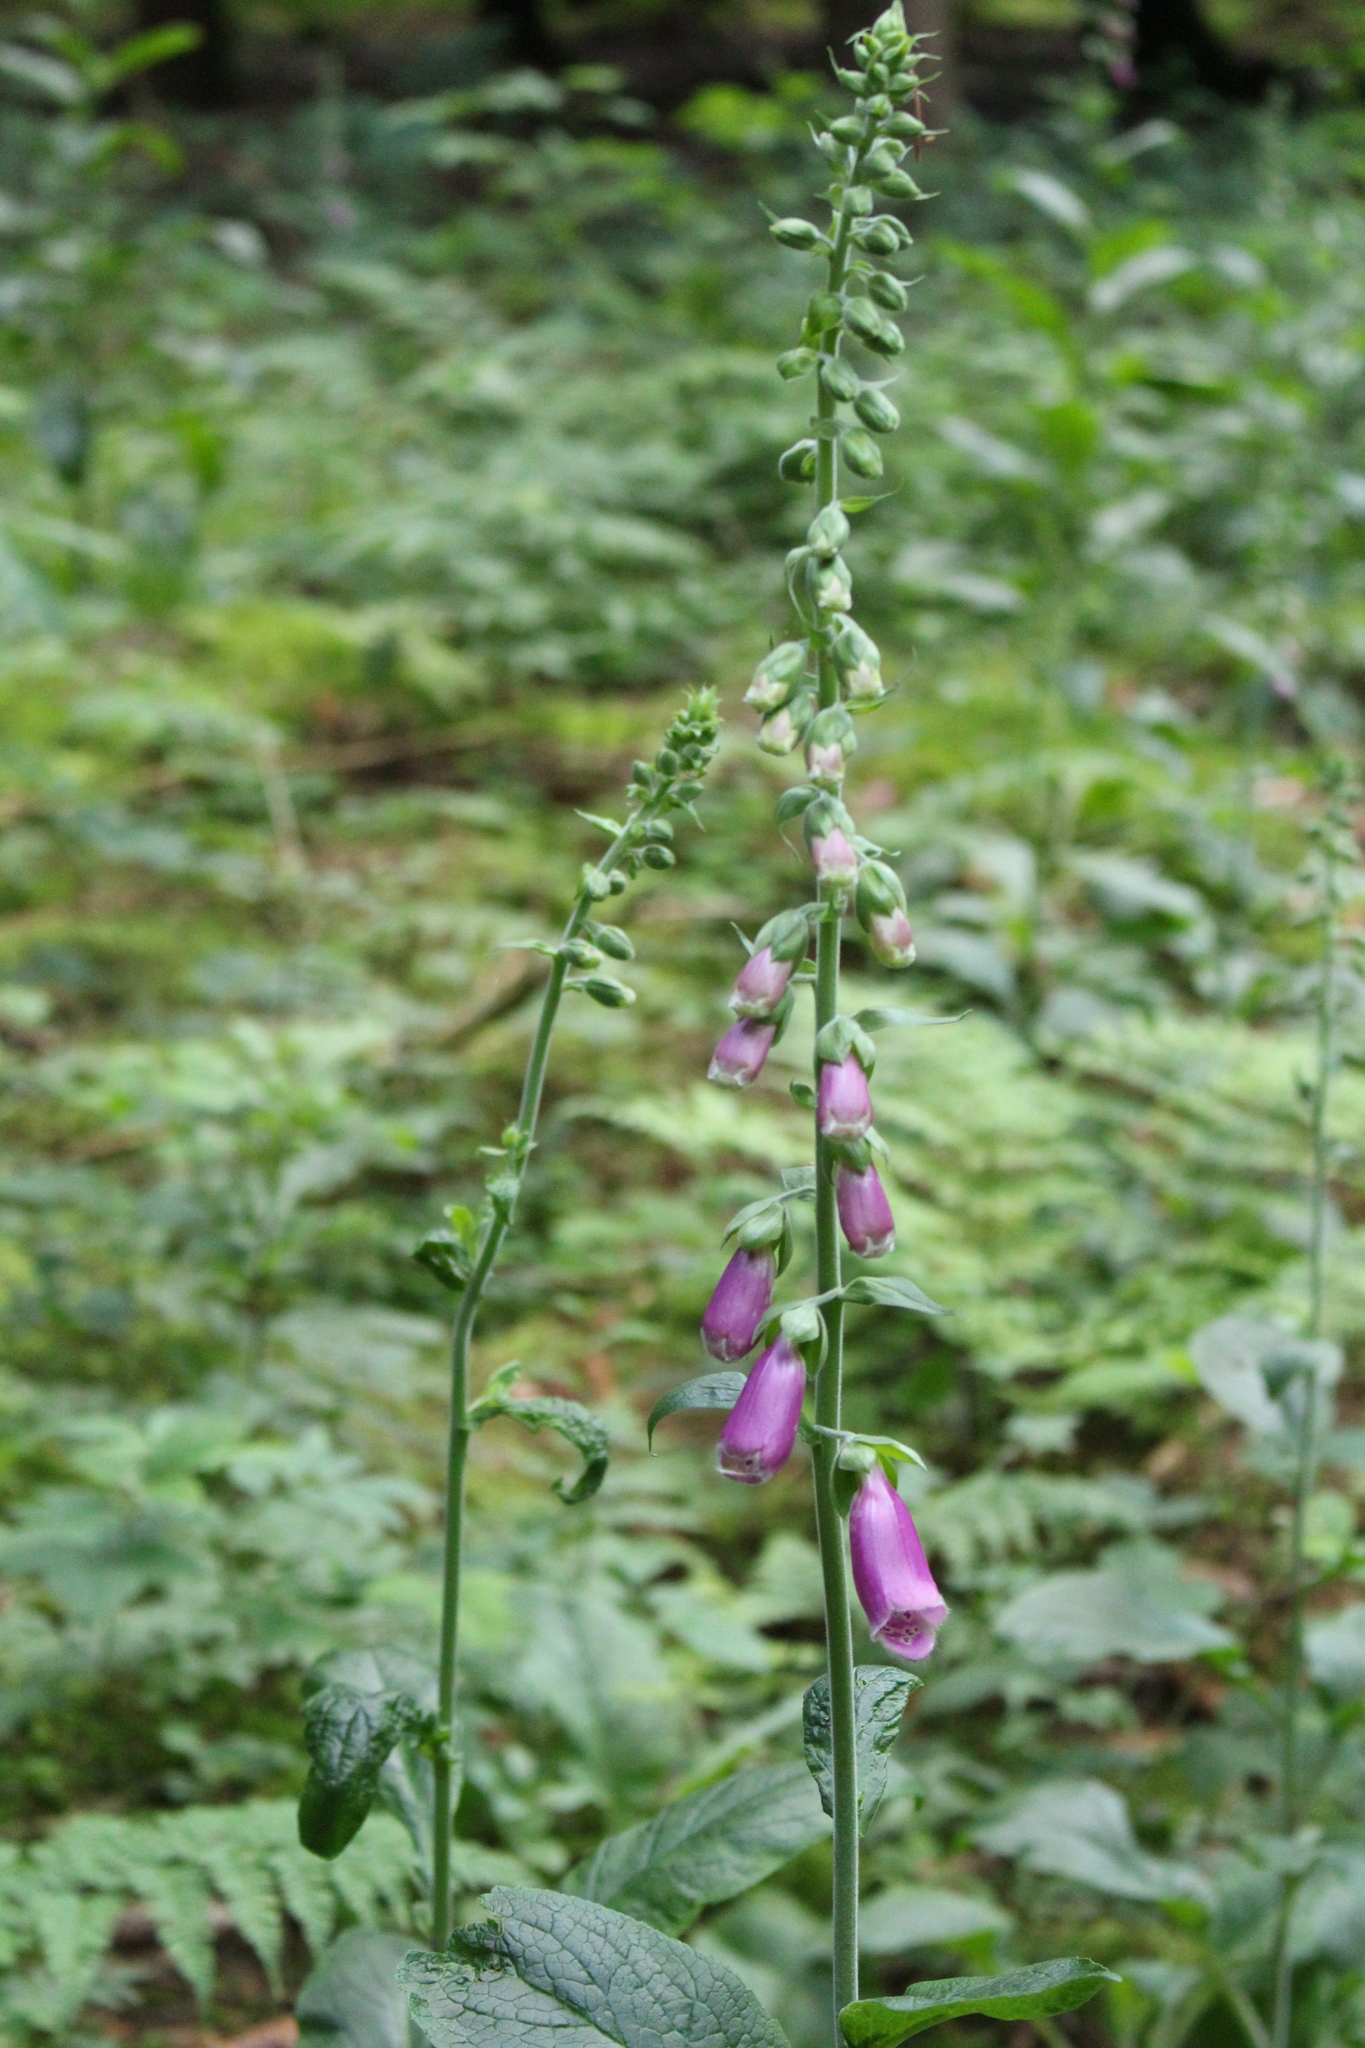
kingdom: Plantae
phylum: Tracheophyta
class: Magnoliopsida
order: Lamiales
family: Plantaginaceae
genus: Digitalis
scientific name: Digitalis purpurea
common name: Foxglove
